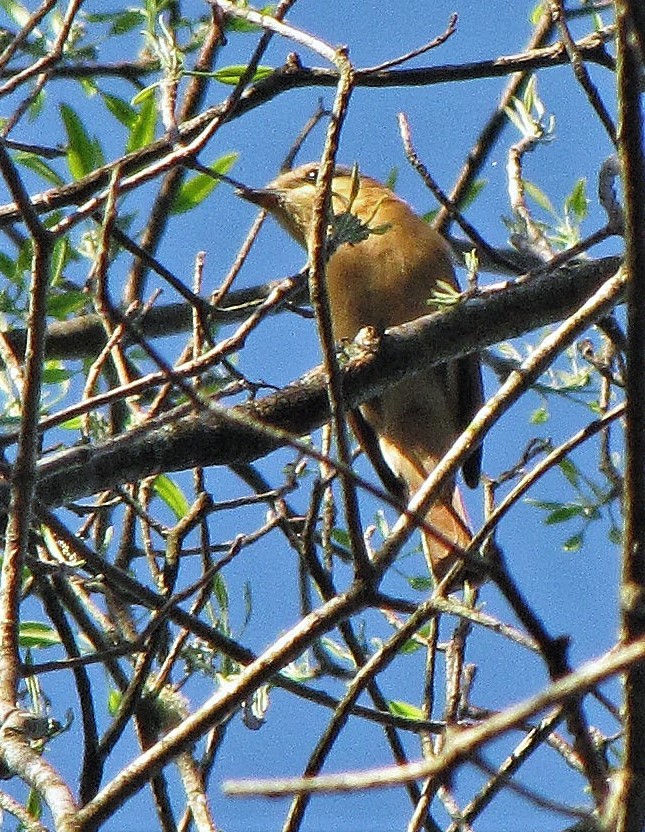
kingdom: Animalia
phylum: Chordata
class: Aves
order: Passeriformes
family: Cotingidae
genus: Pachyramphus
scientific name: Pachyramphus castaneus
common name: Chestnut-crowned becard
